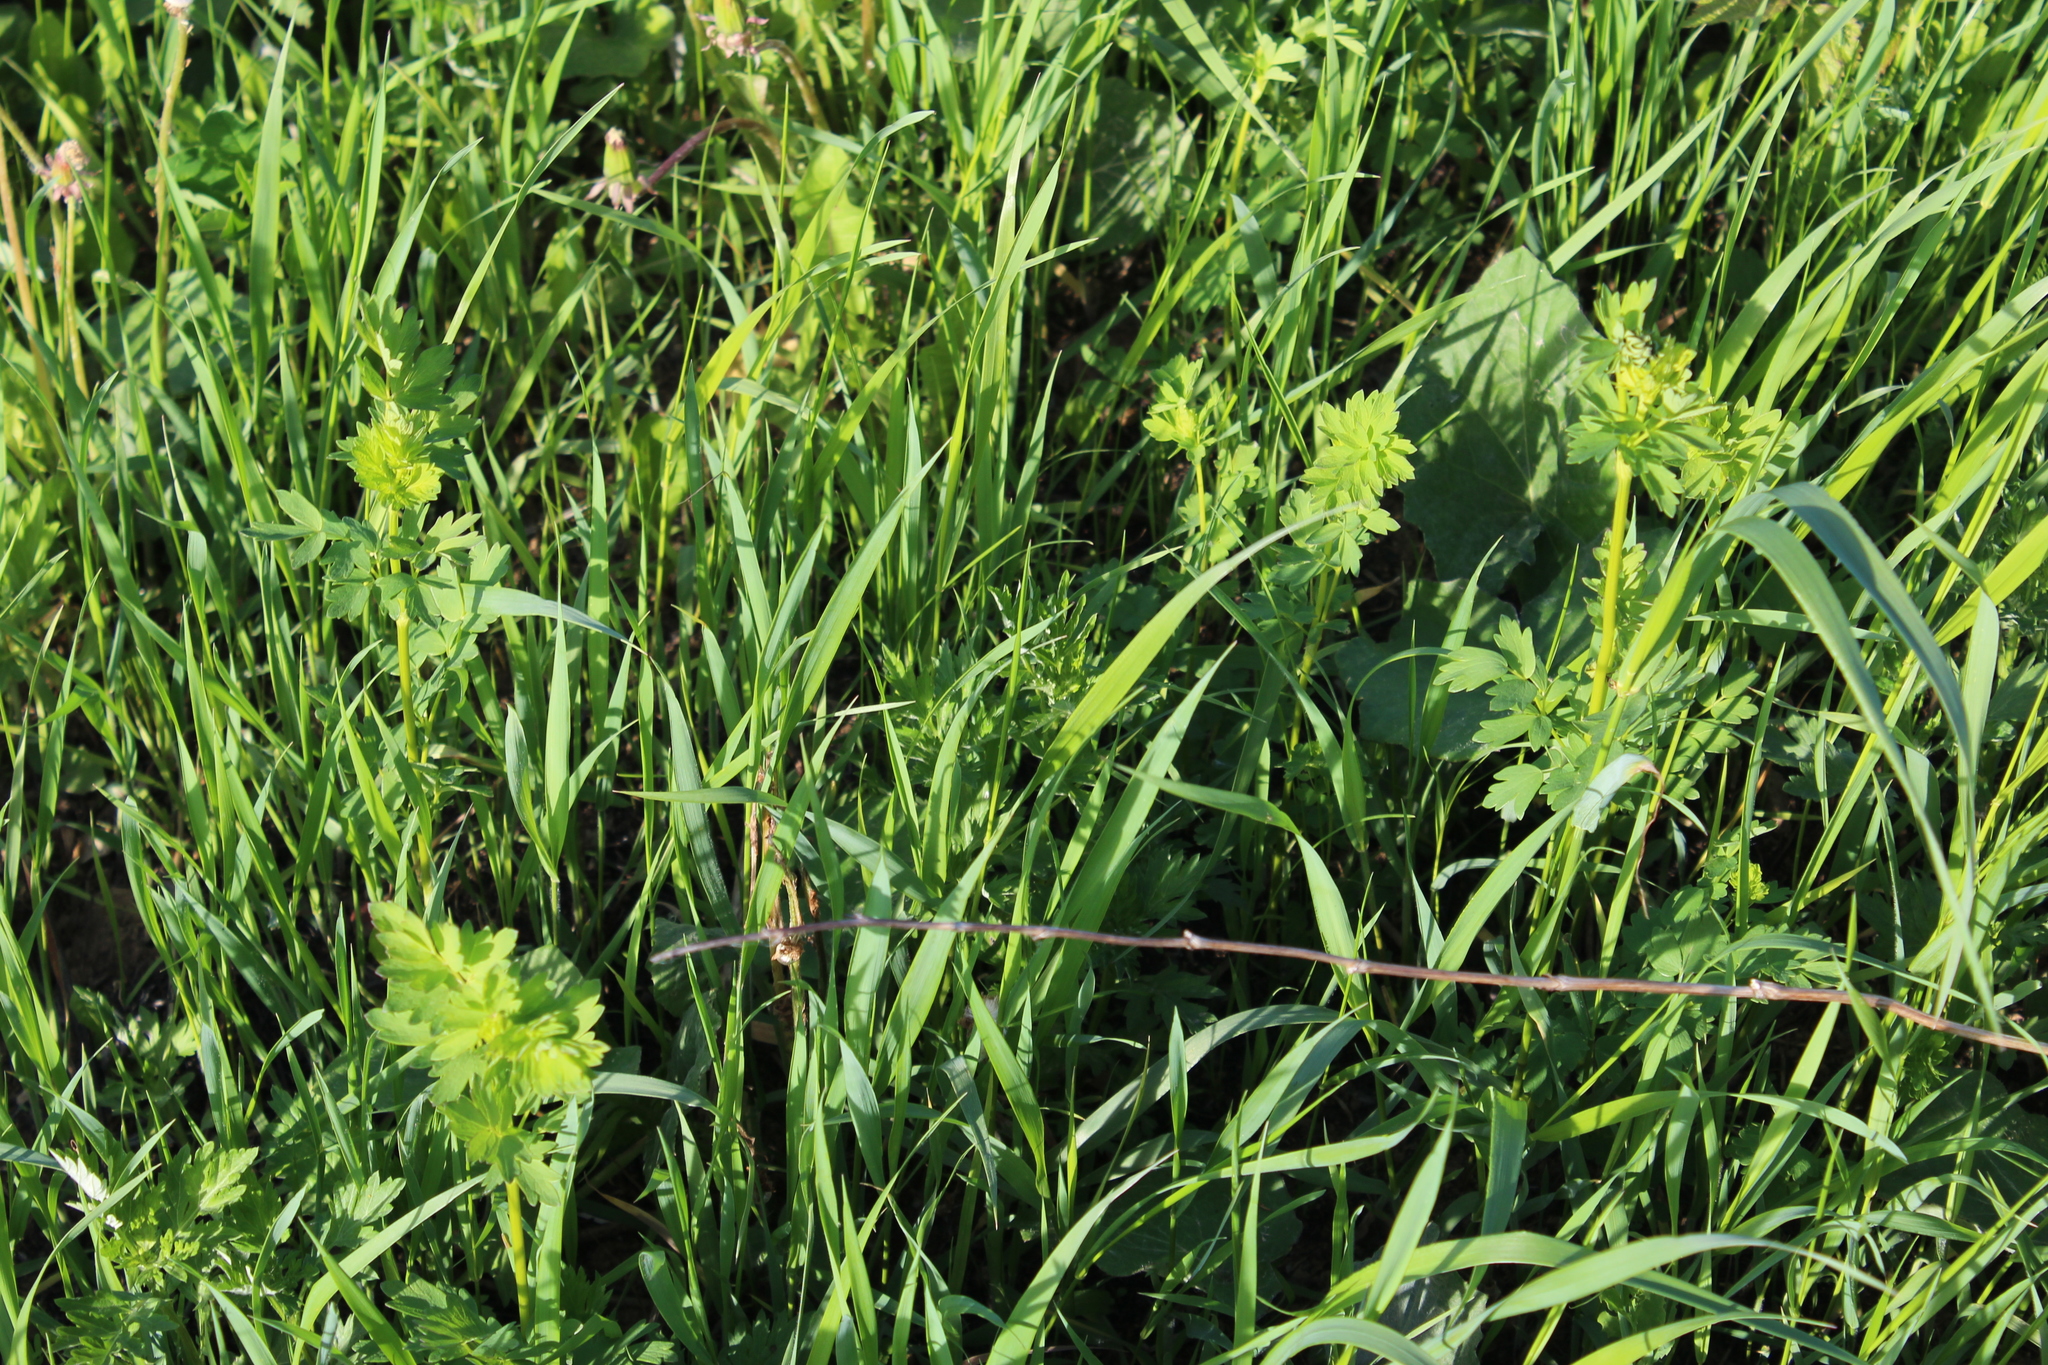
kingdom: Plantae
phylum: Tracheophyta
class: Magnoliopsida
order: Ranunculales
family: Ranunculaceae
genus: Thalictrum
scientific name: Thalictrum flavum
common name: Common meadow-rue
